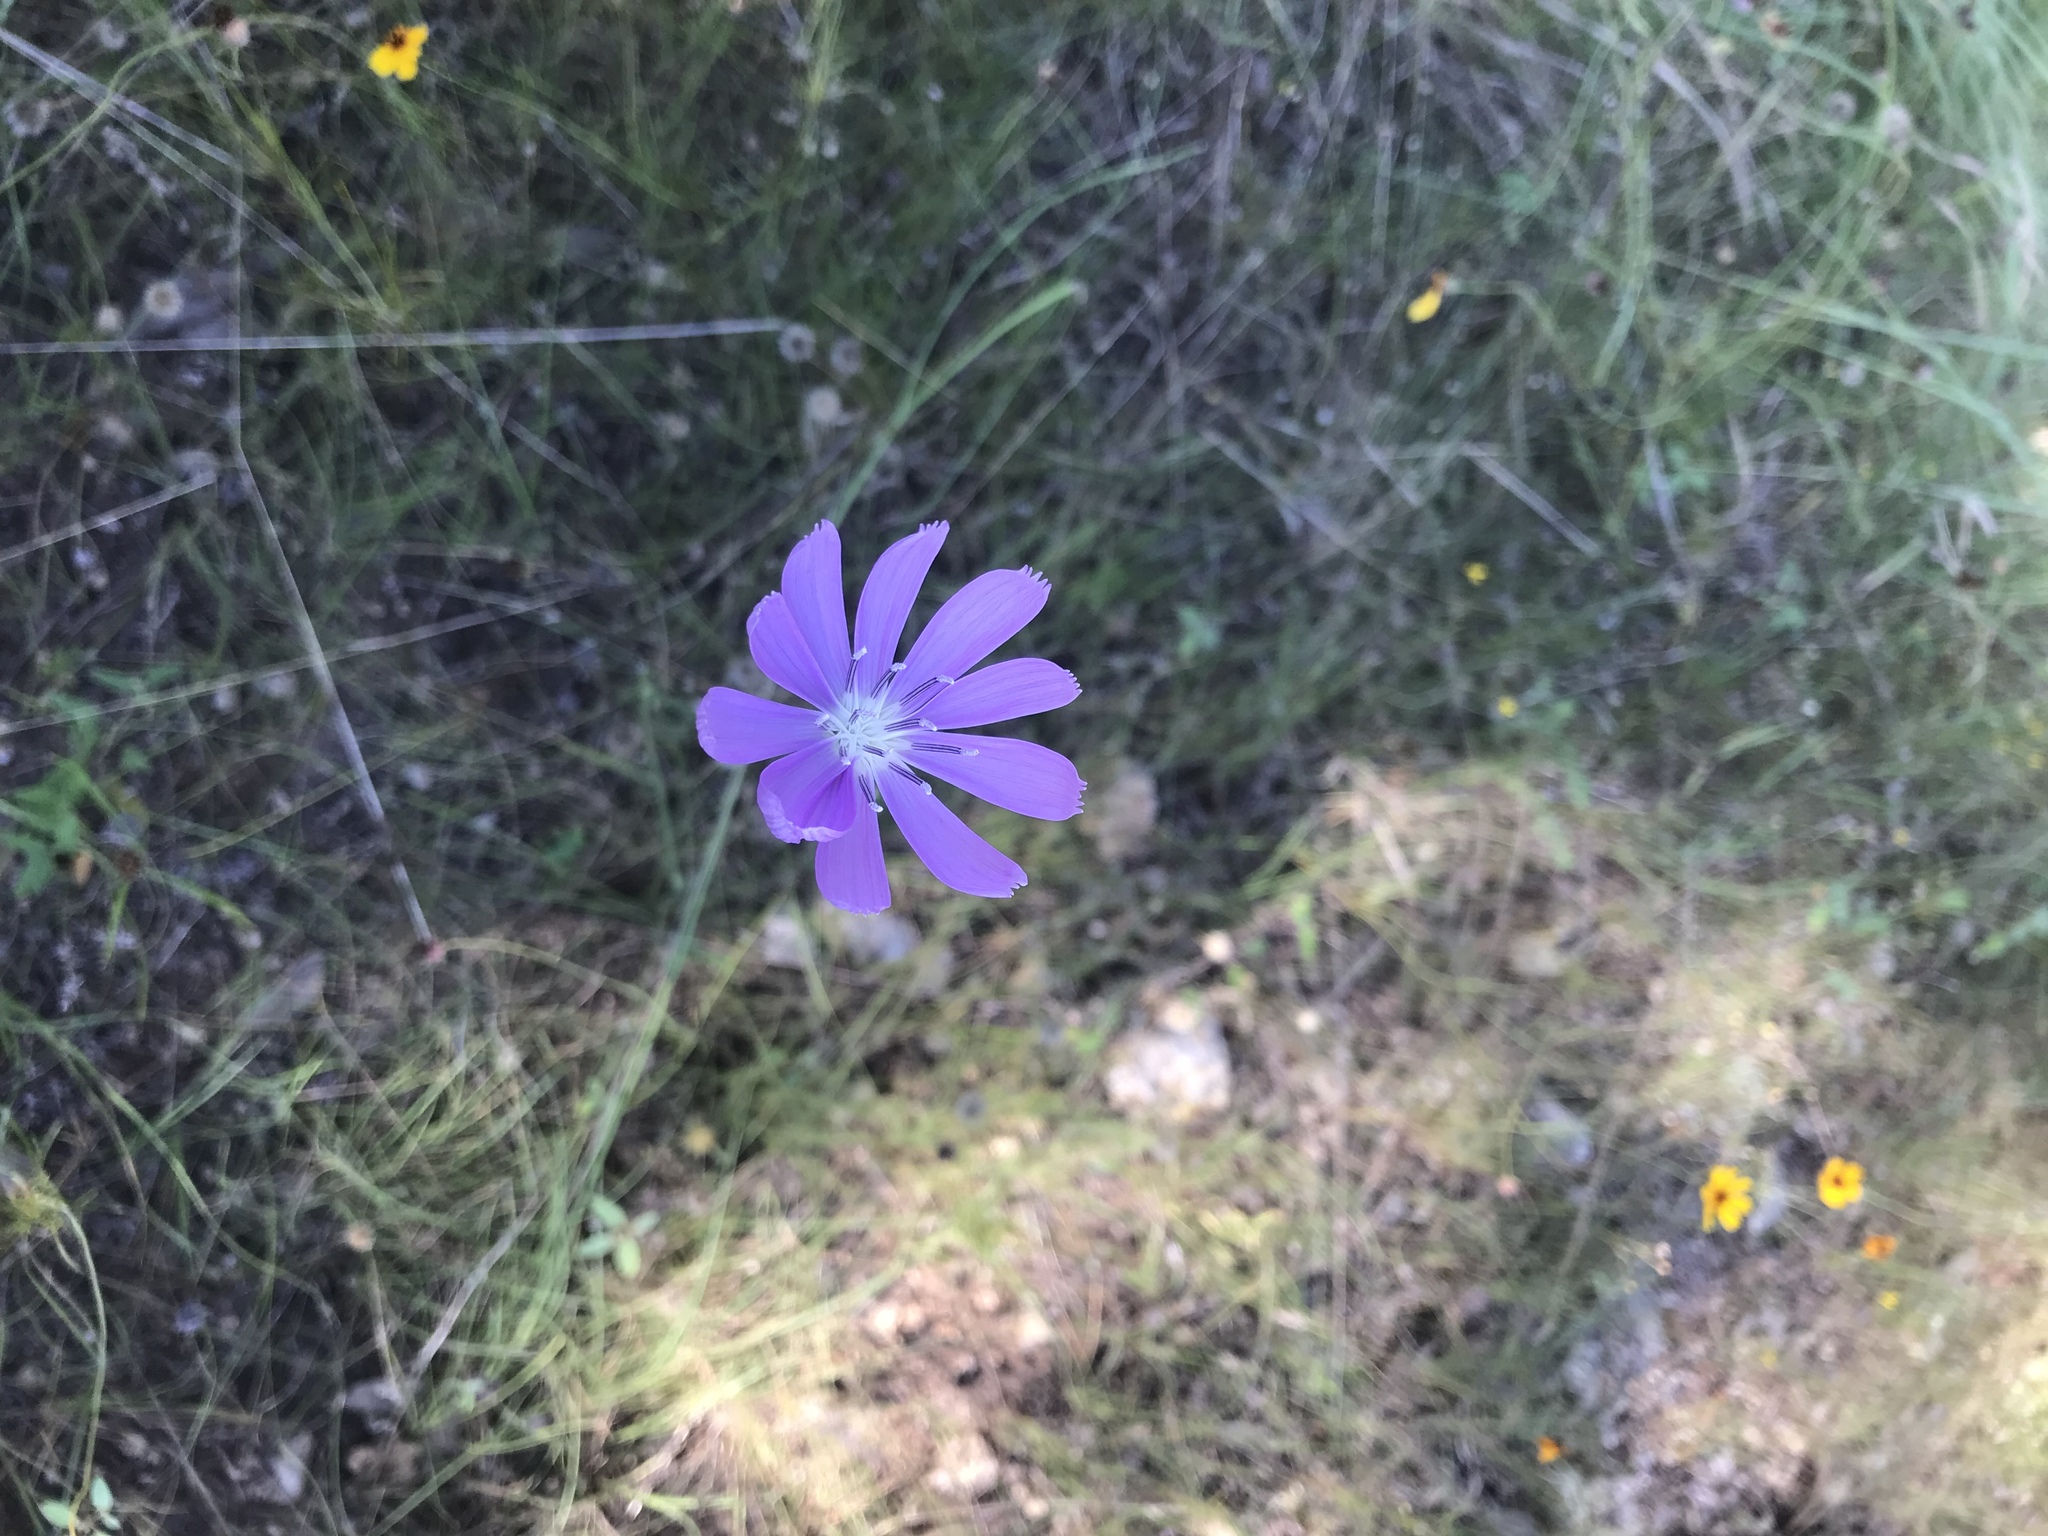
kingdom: Plantae
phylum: Tracheophyta
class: Magnoliopsida
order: Asterales
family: Asteraceae
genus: Lygodesmia
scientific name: Lygodesmia texana
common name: Texas skeleton-plant
